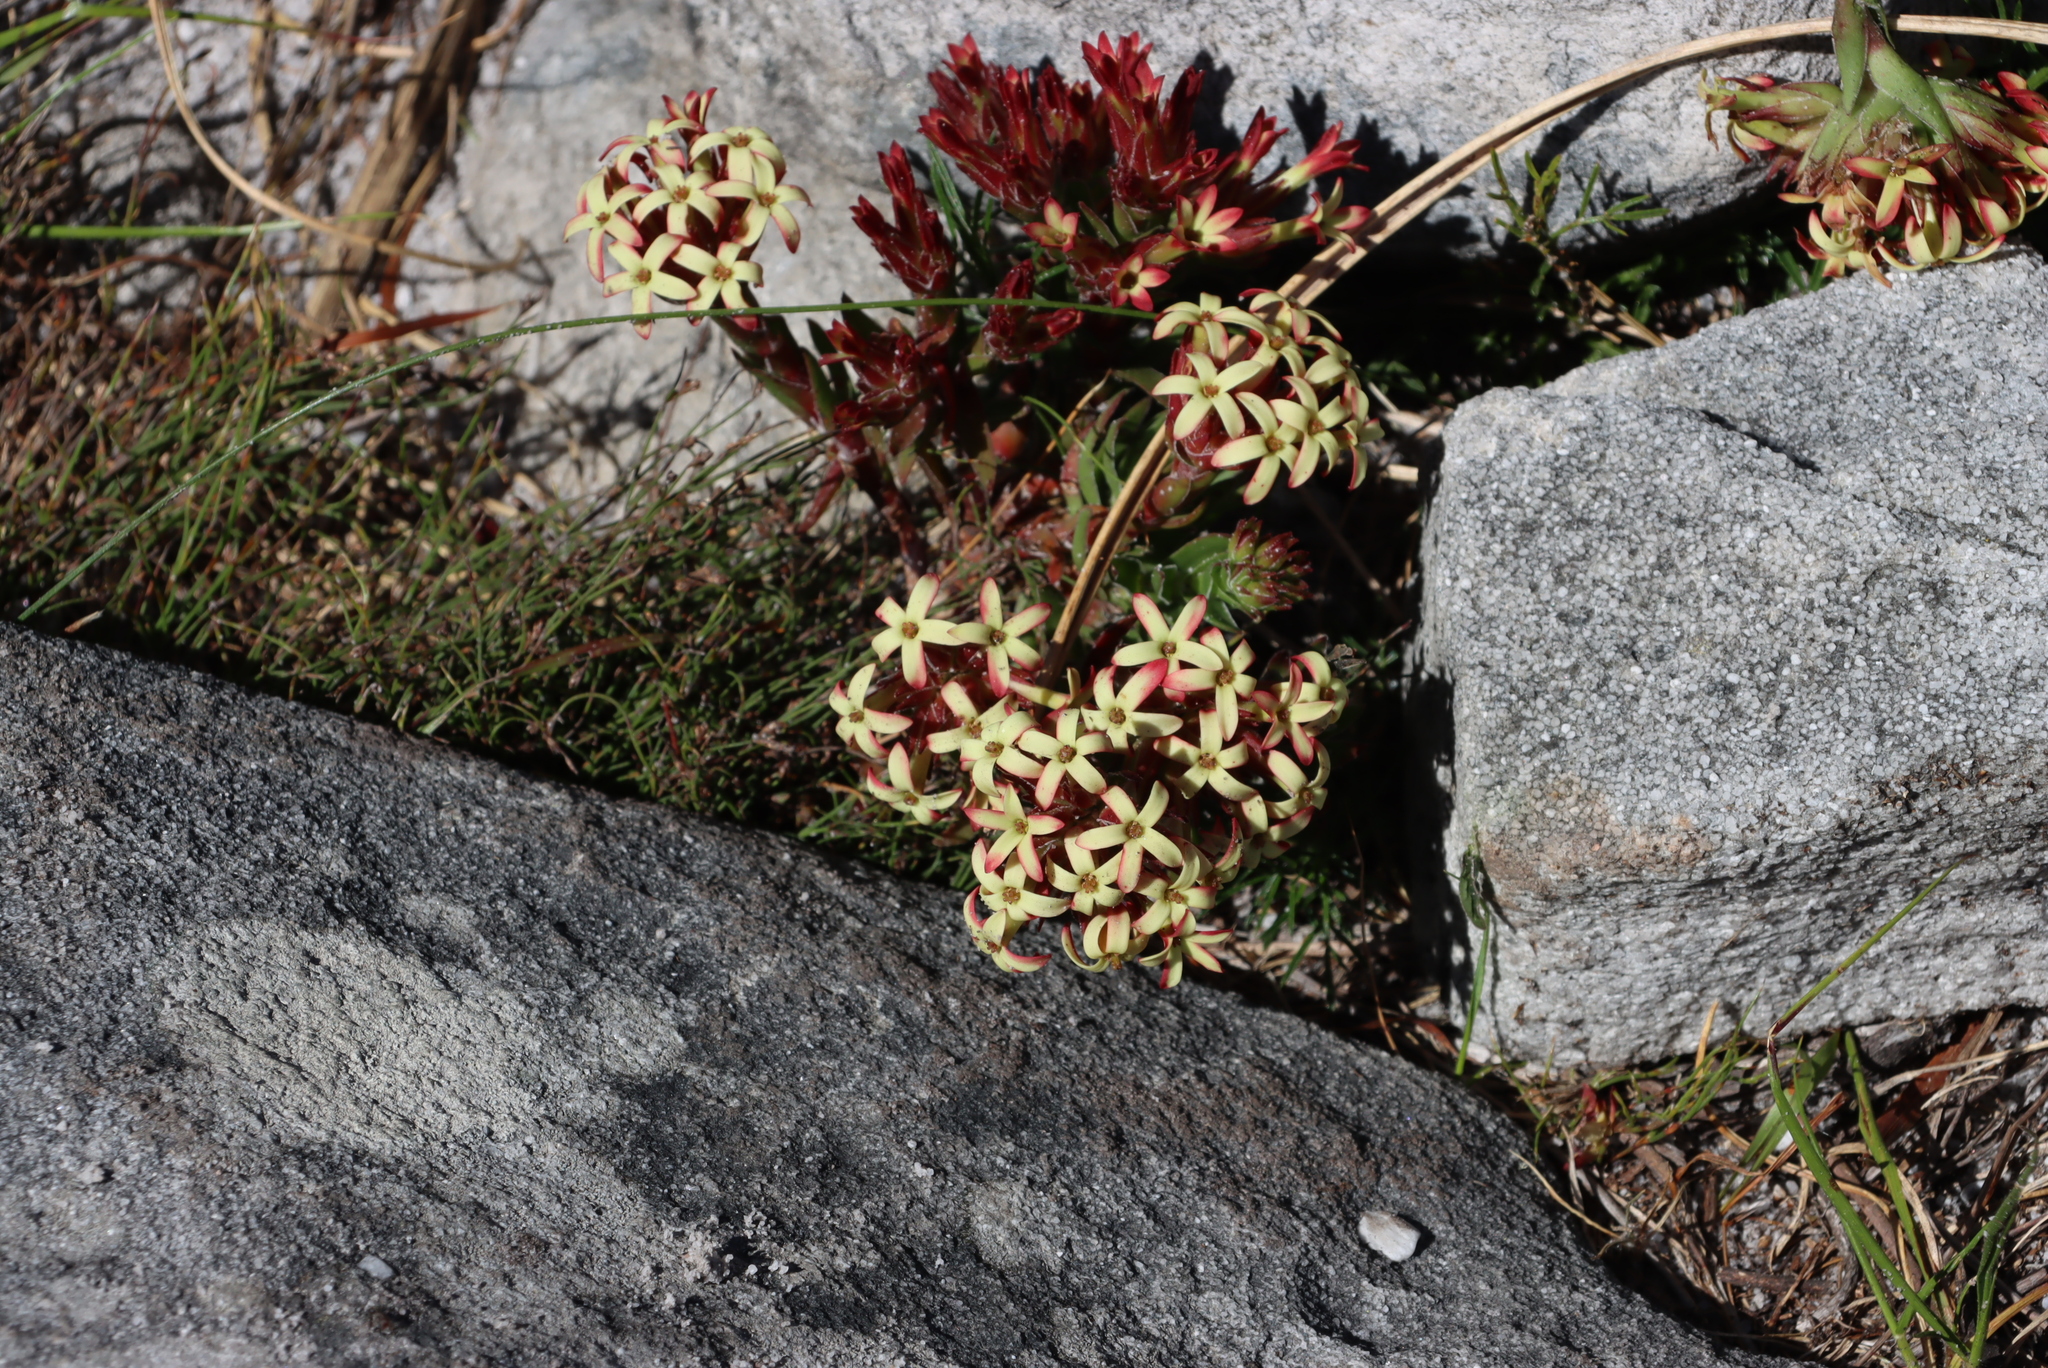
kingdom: Plantae
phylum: Tracheophyta
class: Magnoliopsida
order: Saxifragales
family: Crassulaceae
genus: Crassula
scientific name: Crassula fascicularis
